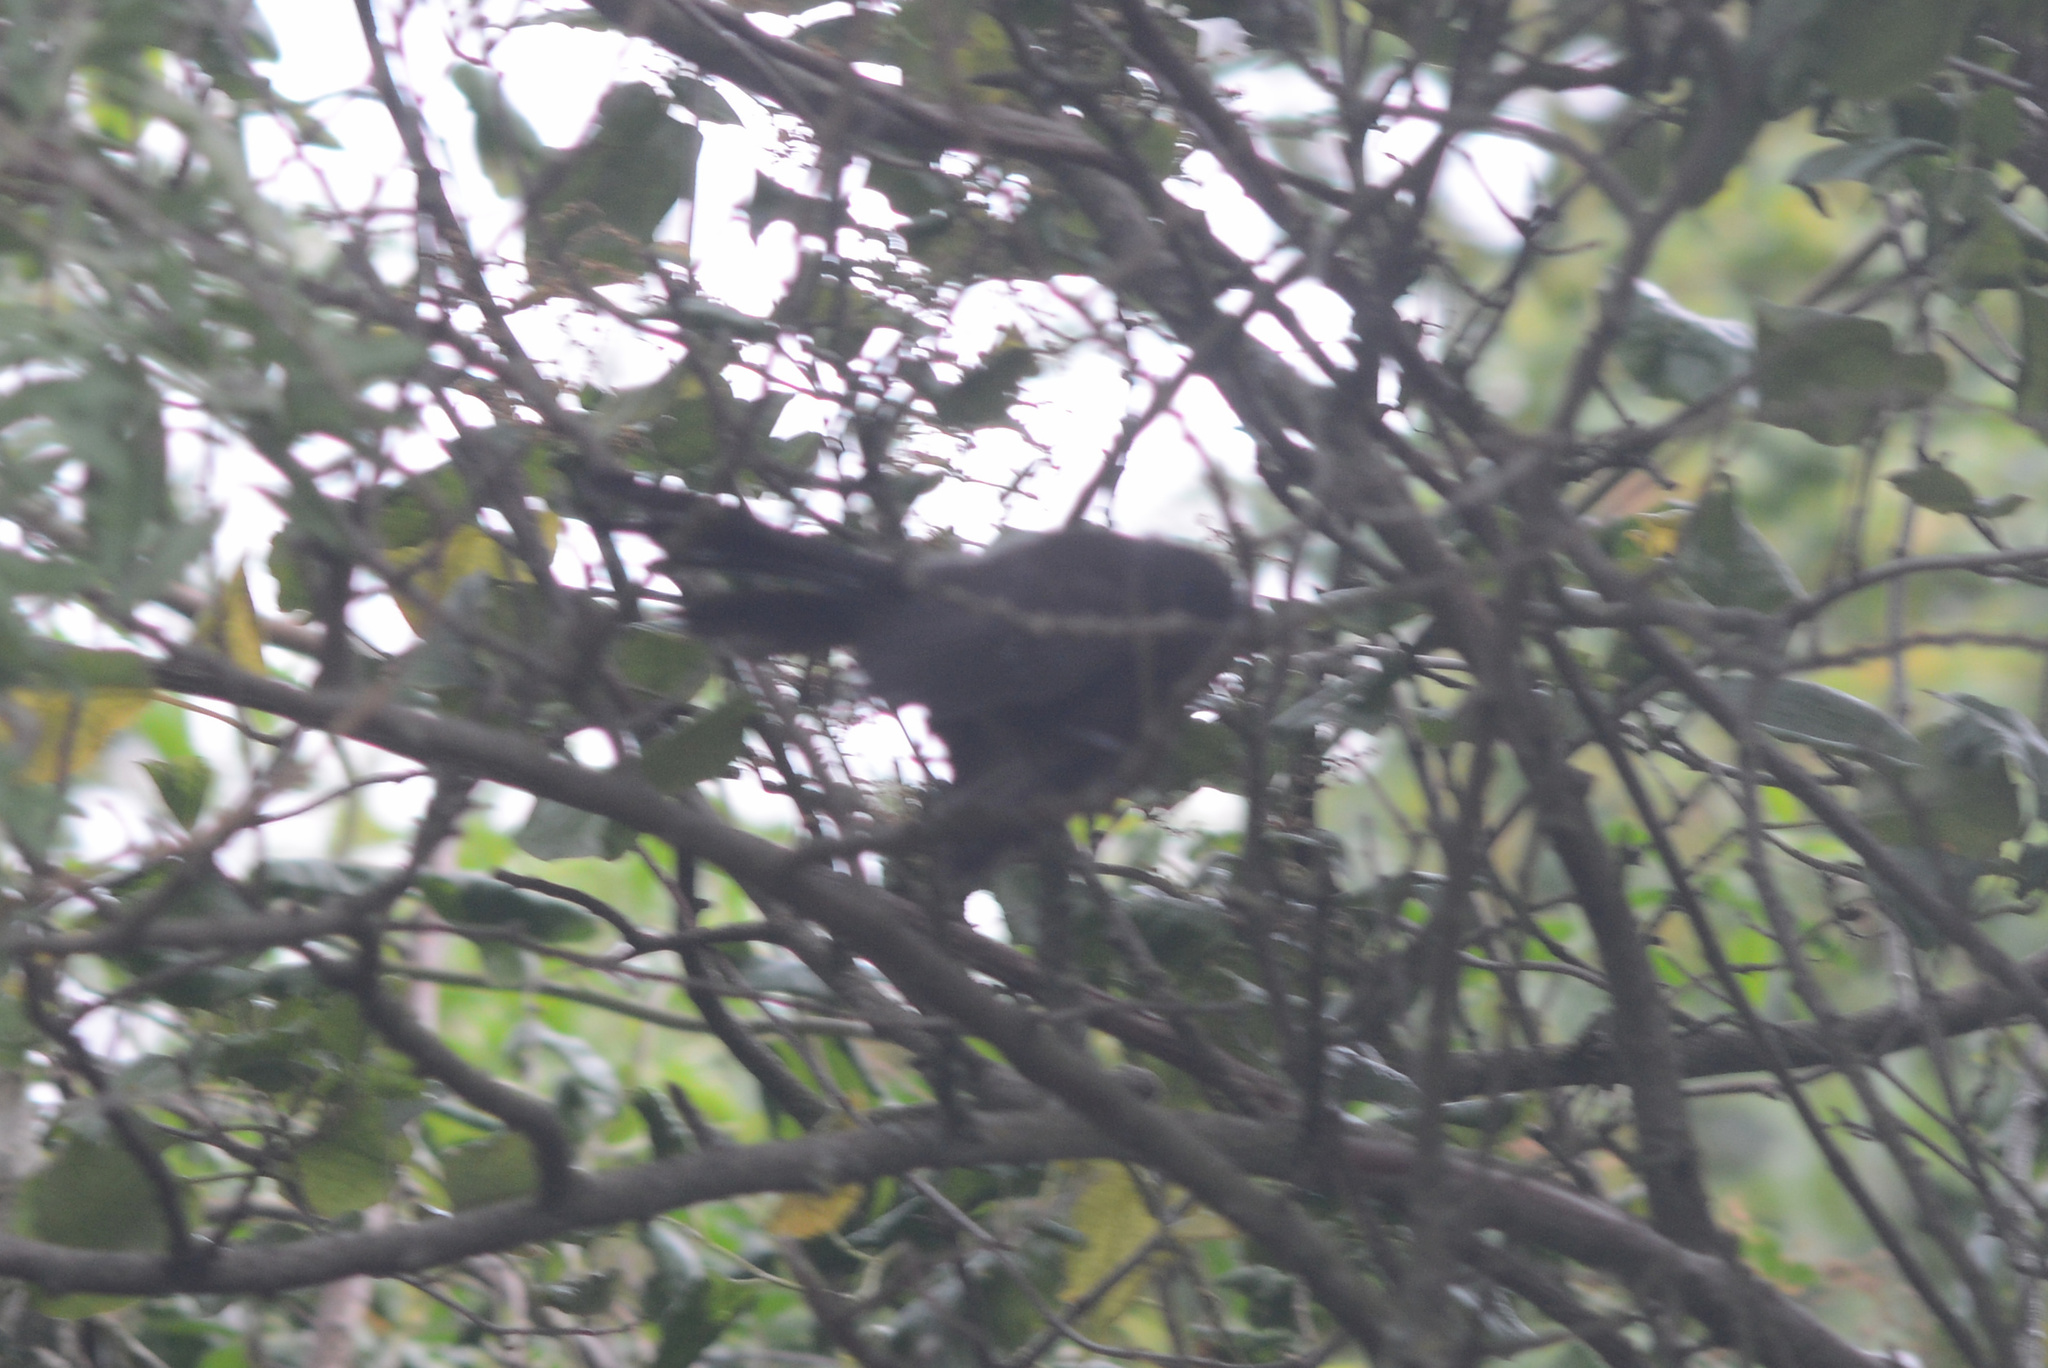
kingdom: Animalia
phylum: Chordata
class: Aves
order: Passeriformes
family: Rhipiduridae
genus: Rhipidura
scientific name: Rhipidura fuliginosa
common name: New zealand fantail
